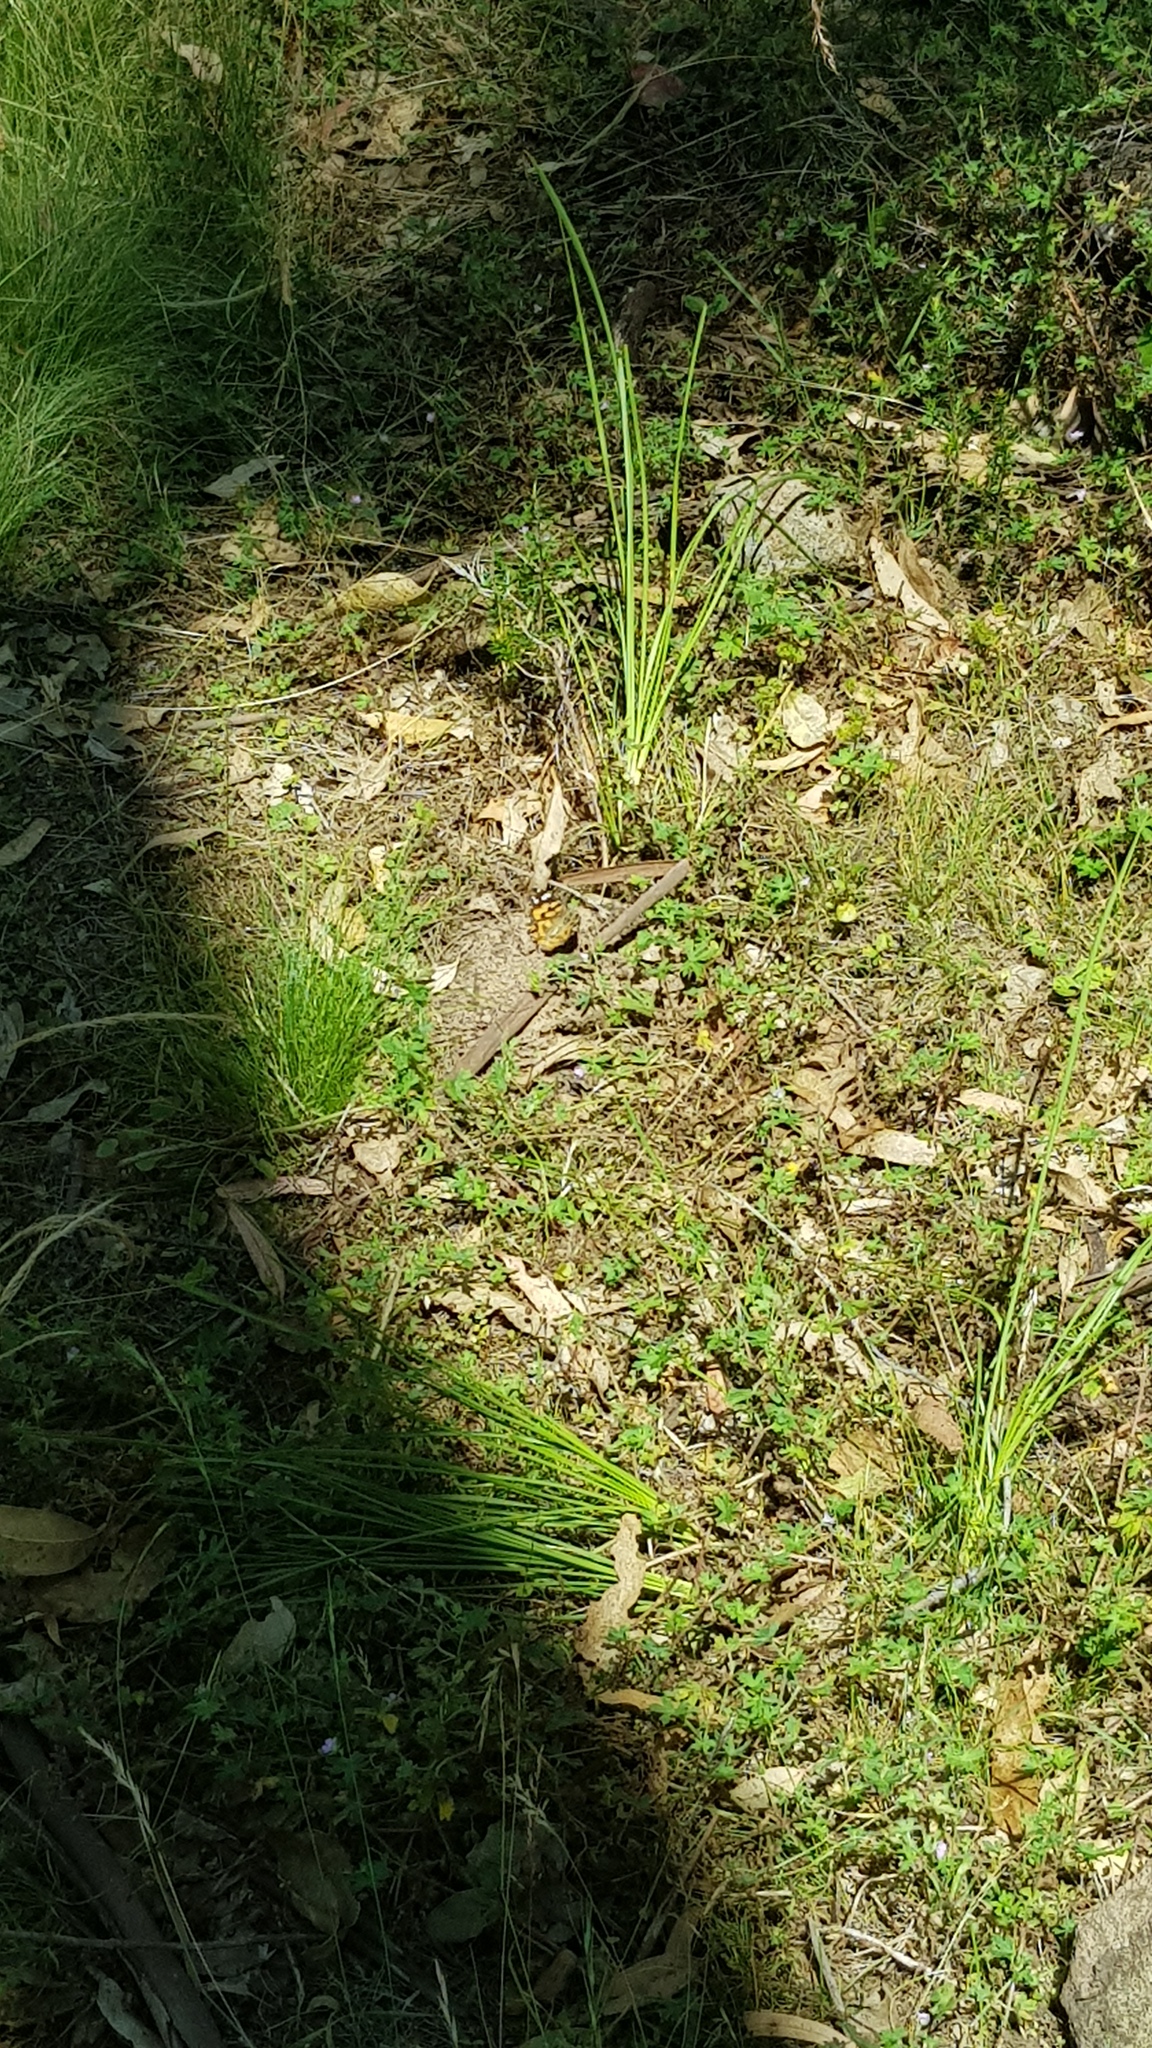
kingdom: Animalia
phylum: Arthropoda
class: Insecta
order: Lepidoptera
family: Nymphalidae
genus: Vanessa
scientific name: Vanessa kershawi
